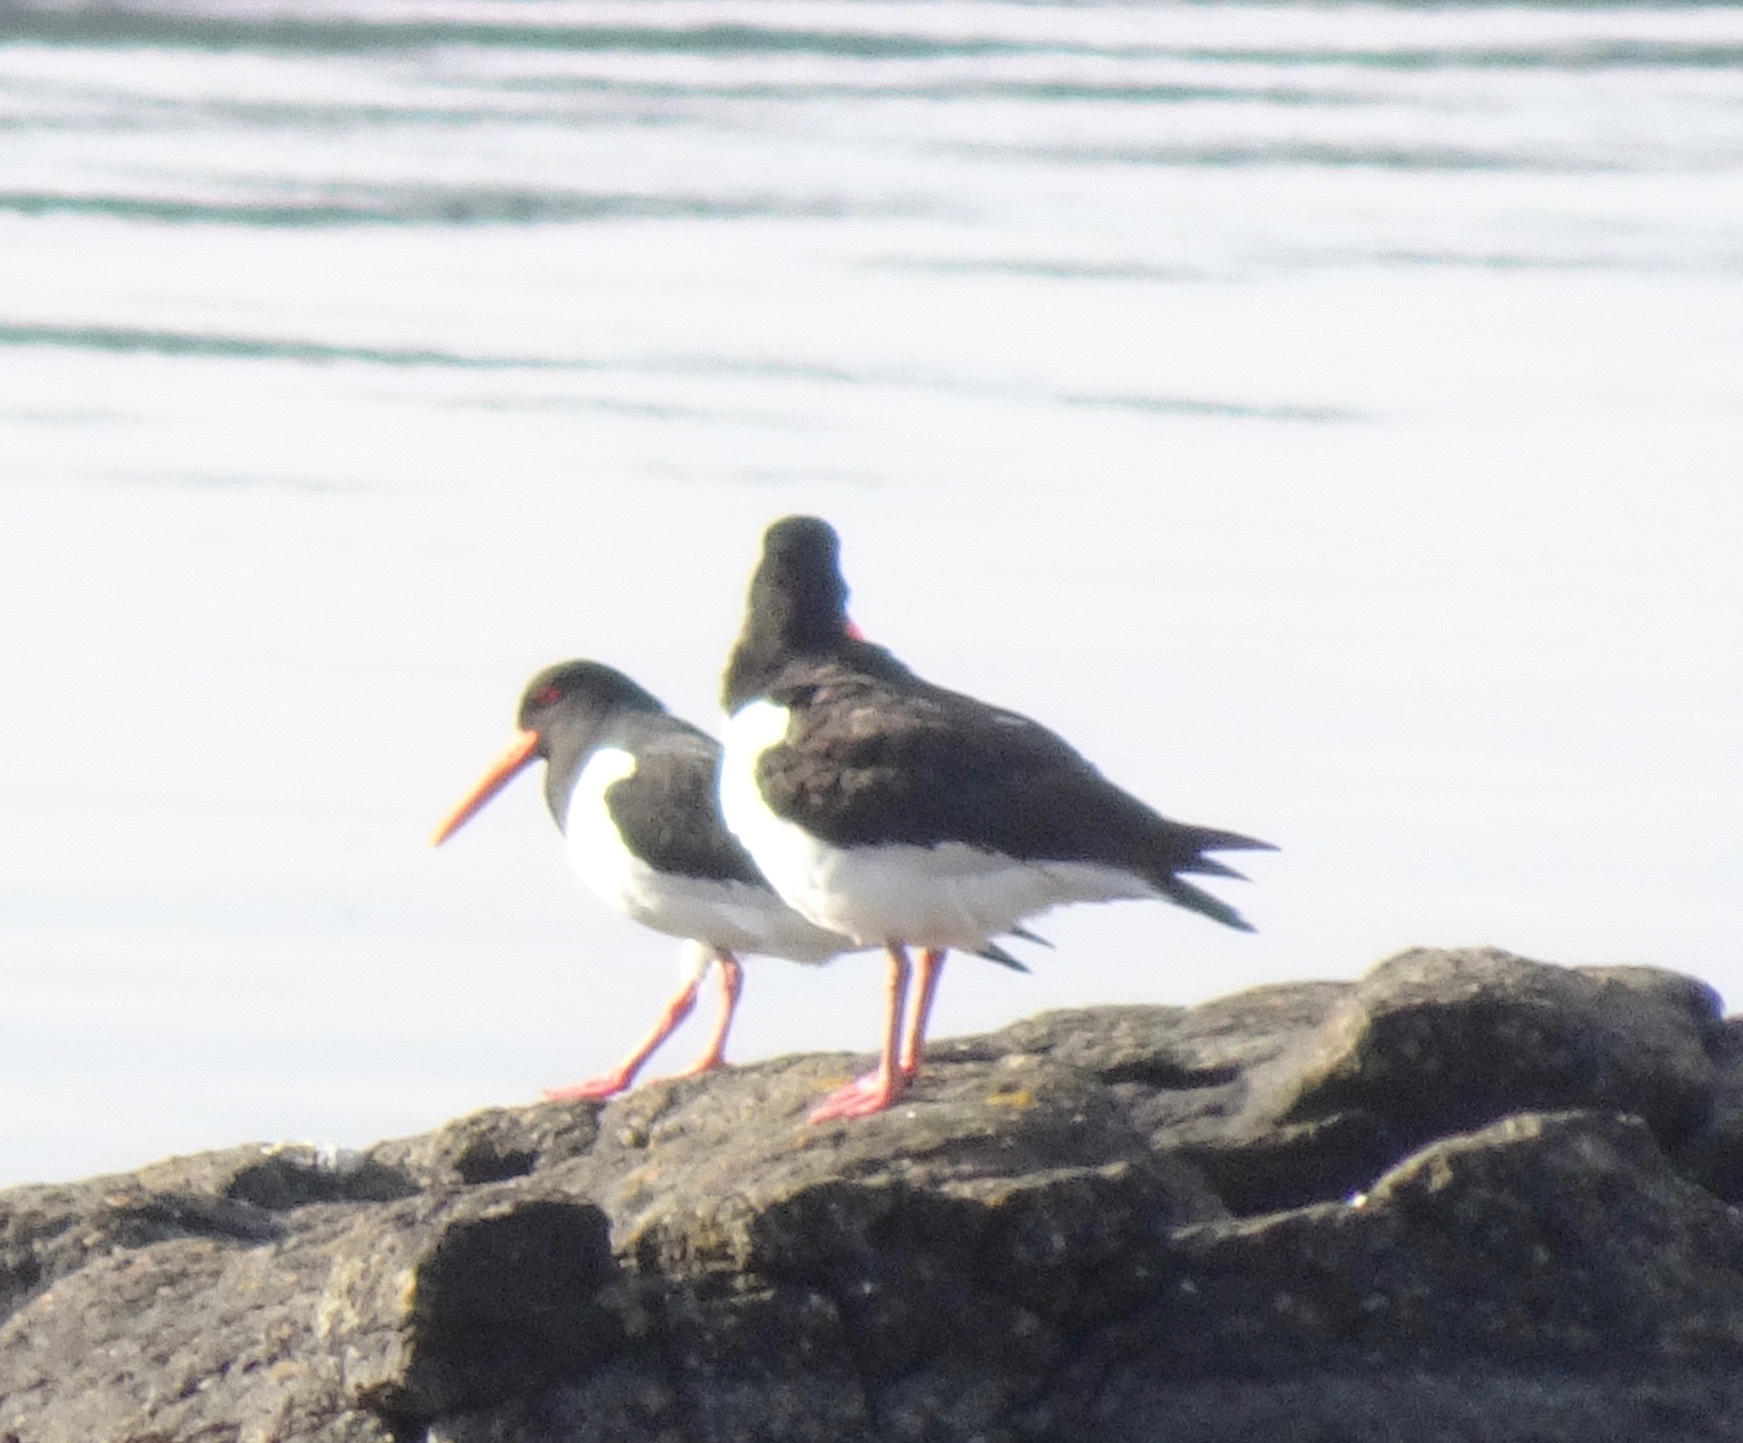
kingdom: Animalia
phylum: Chordata
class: Aves
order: Charadriiformes
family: Haematopodidae
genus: Haematopus
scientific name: Haematopus ostralegus
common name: Eurasian oystercatcher
